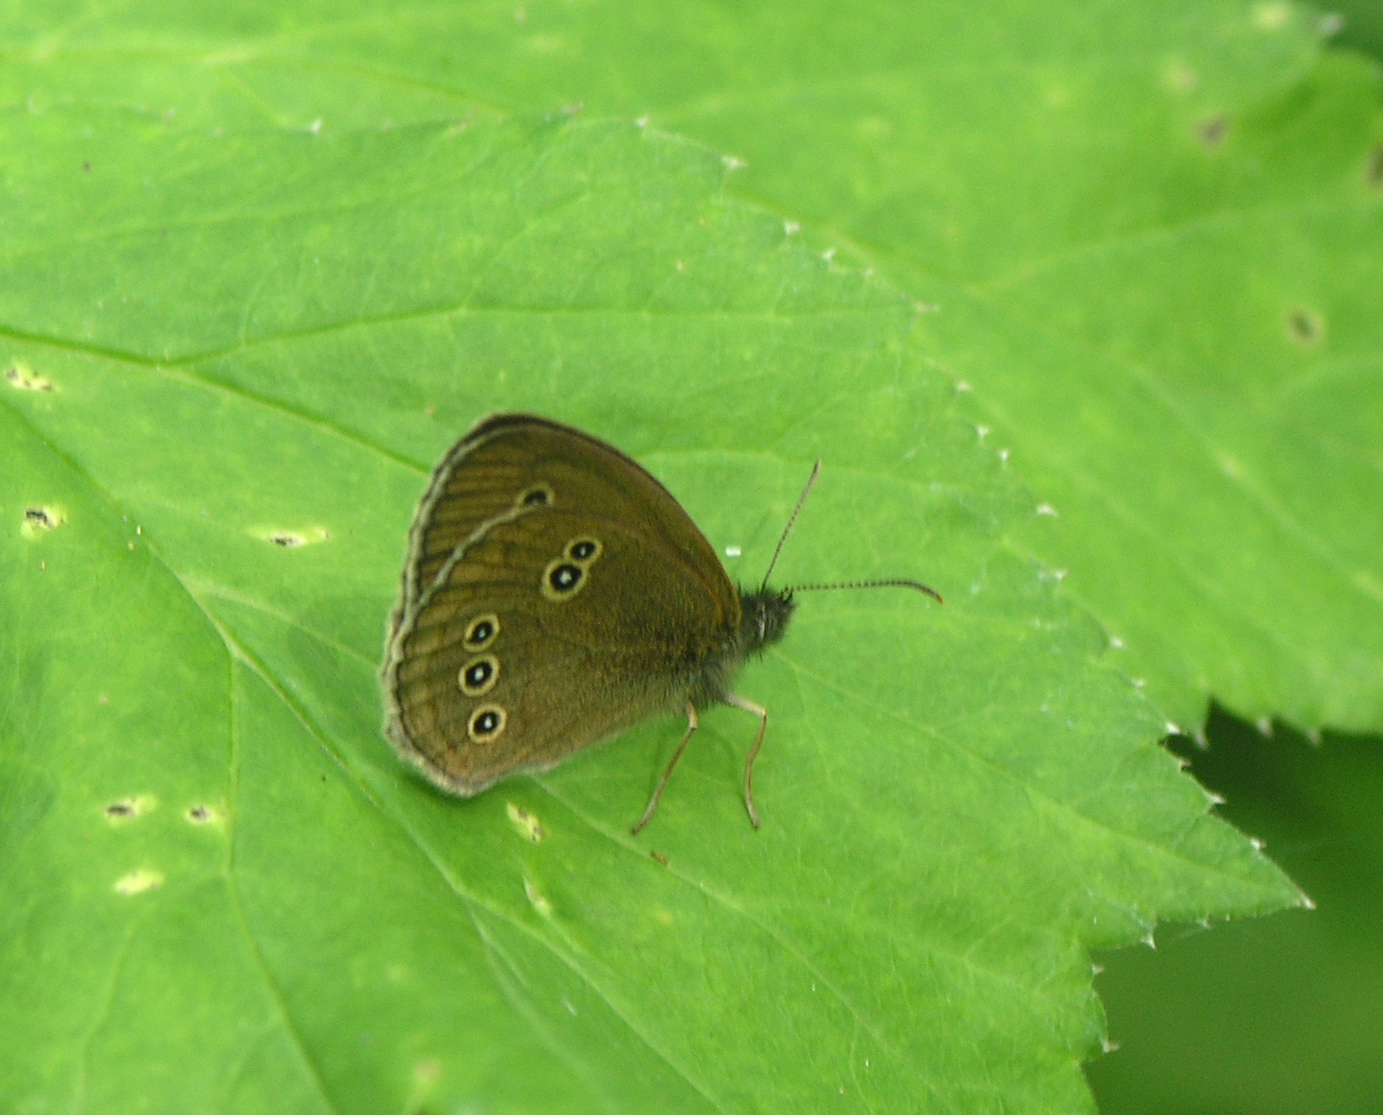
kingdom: Animalia
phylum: Arthropoda
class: Insecta
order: Lepidoptera
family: Nymphalidae
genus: Aphantopus
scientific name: Aphantopus hyperantus
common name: Ringlet
